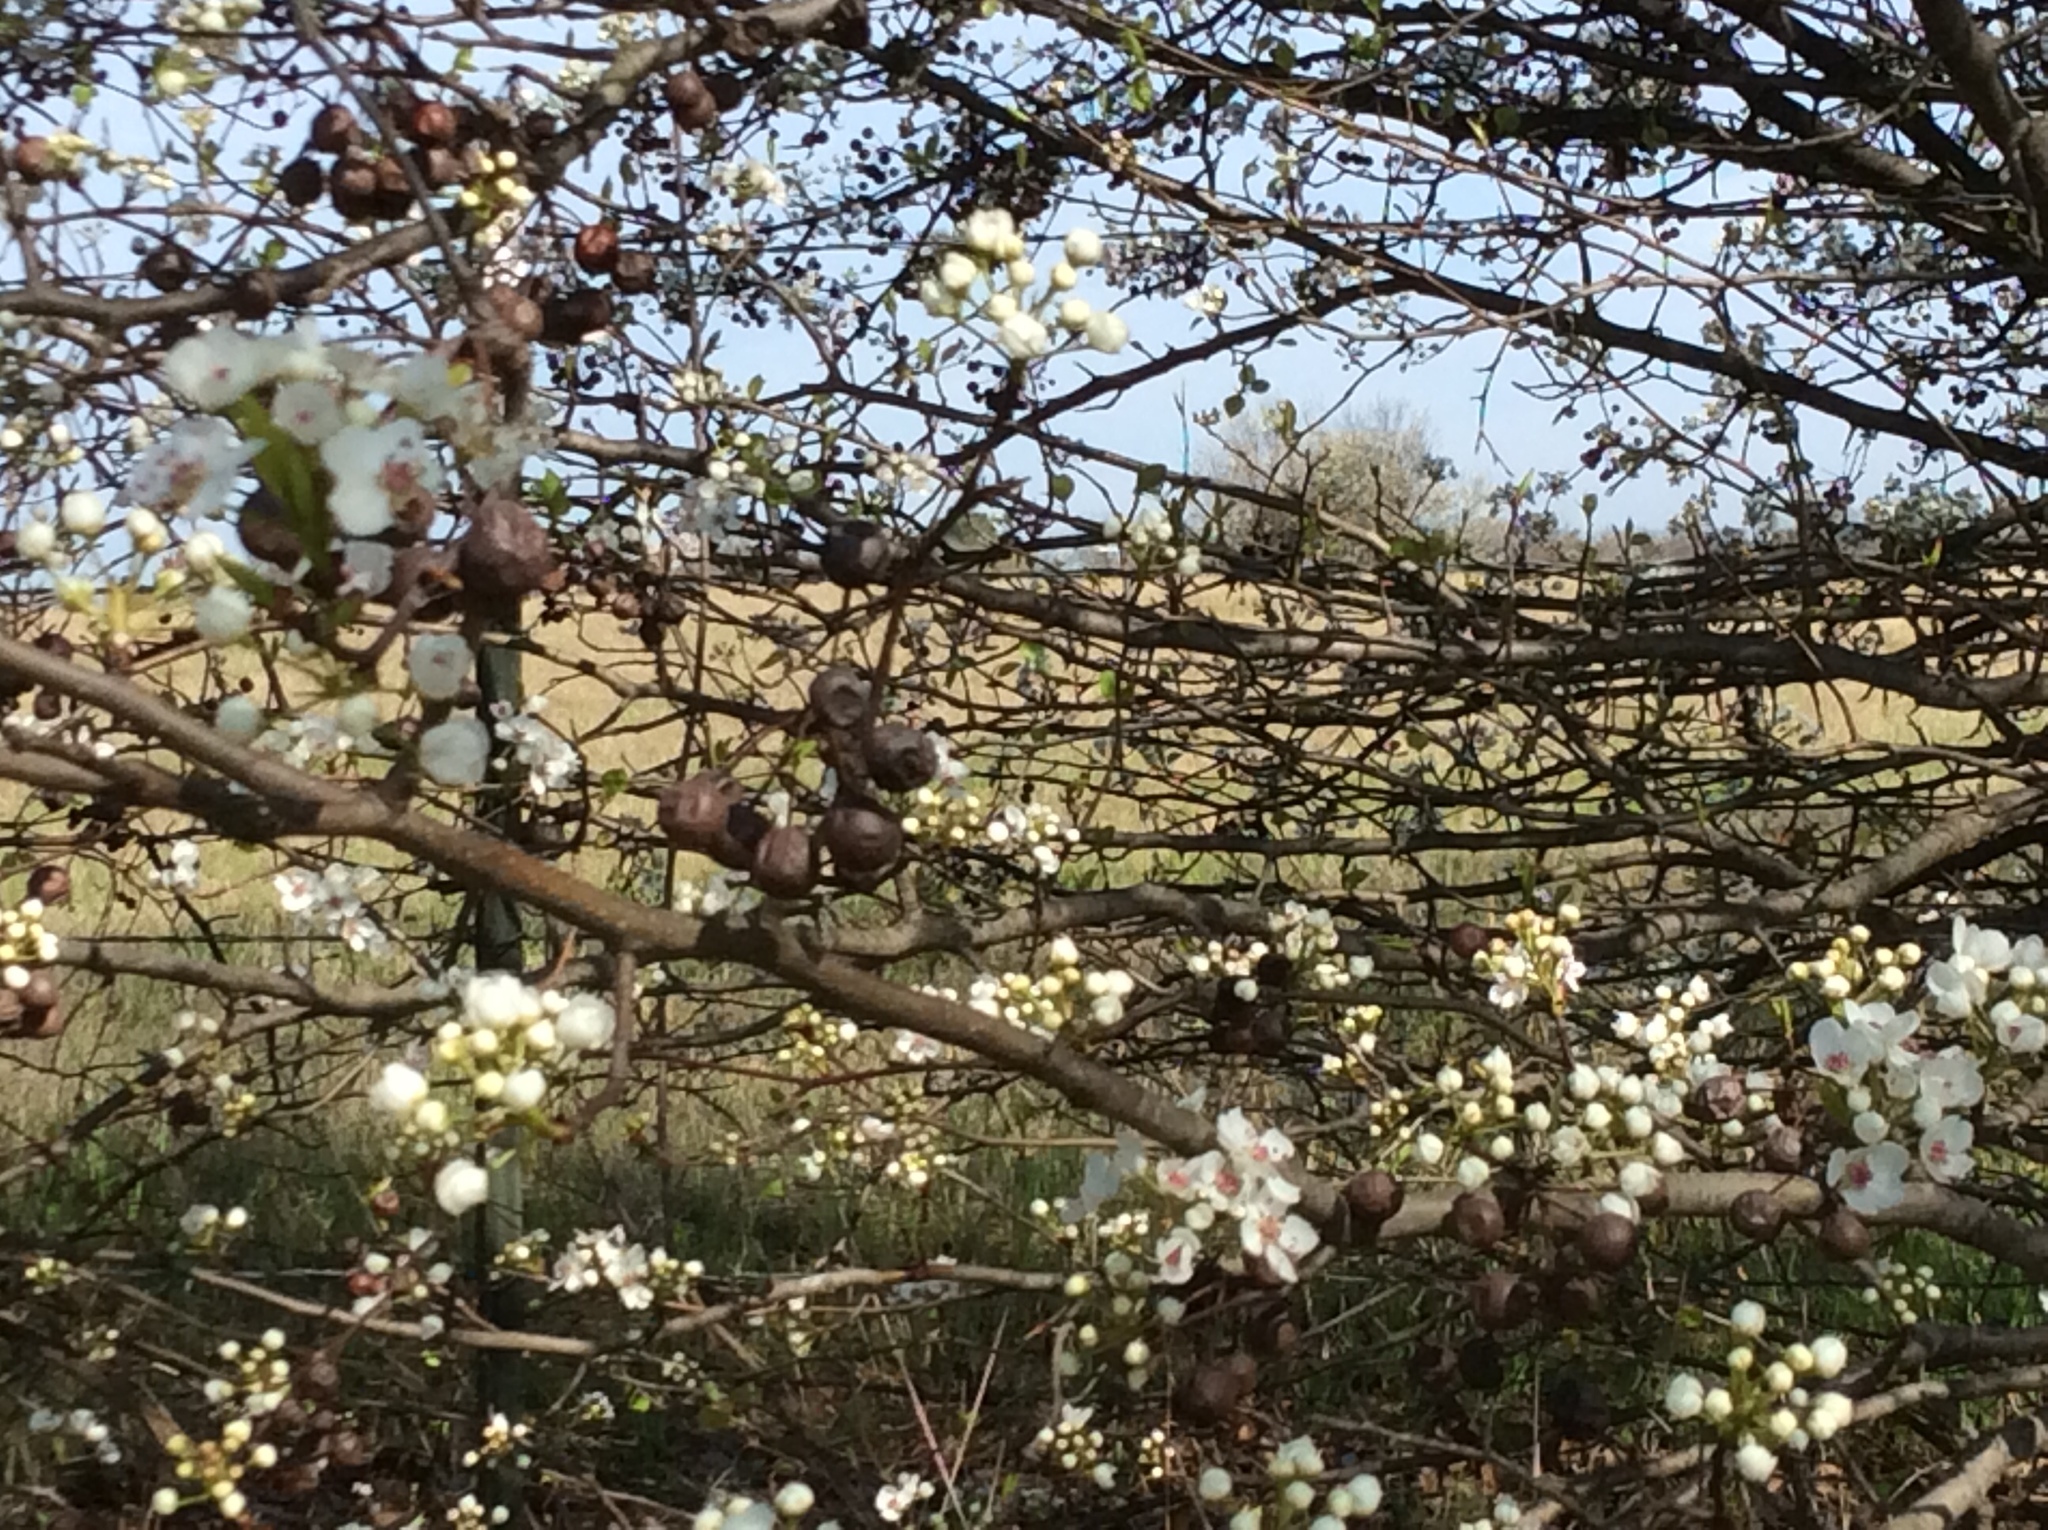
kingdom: Plantae
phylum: Tracheophyta
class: Magnoliopsida
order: Rosales
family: Rosaceae
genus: Pyrus
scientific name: Pyrus calleryana
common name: Callery pear
